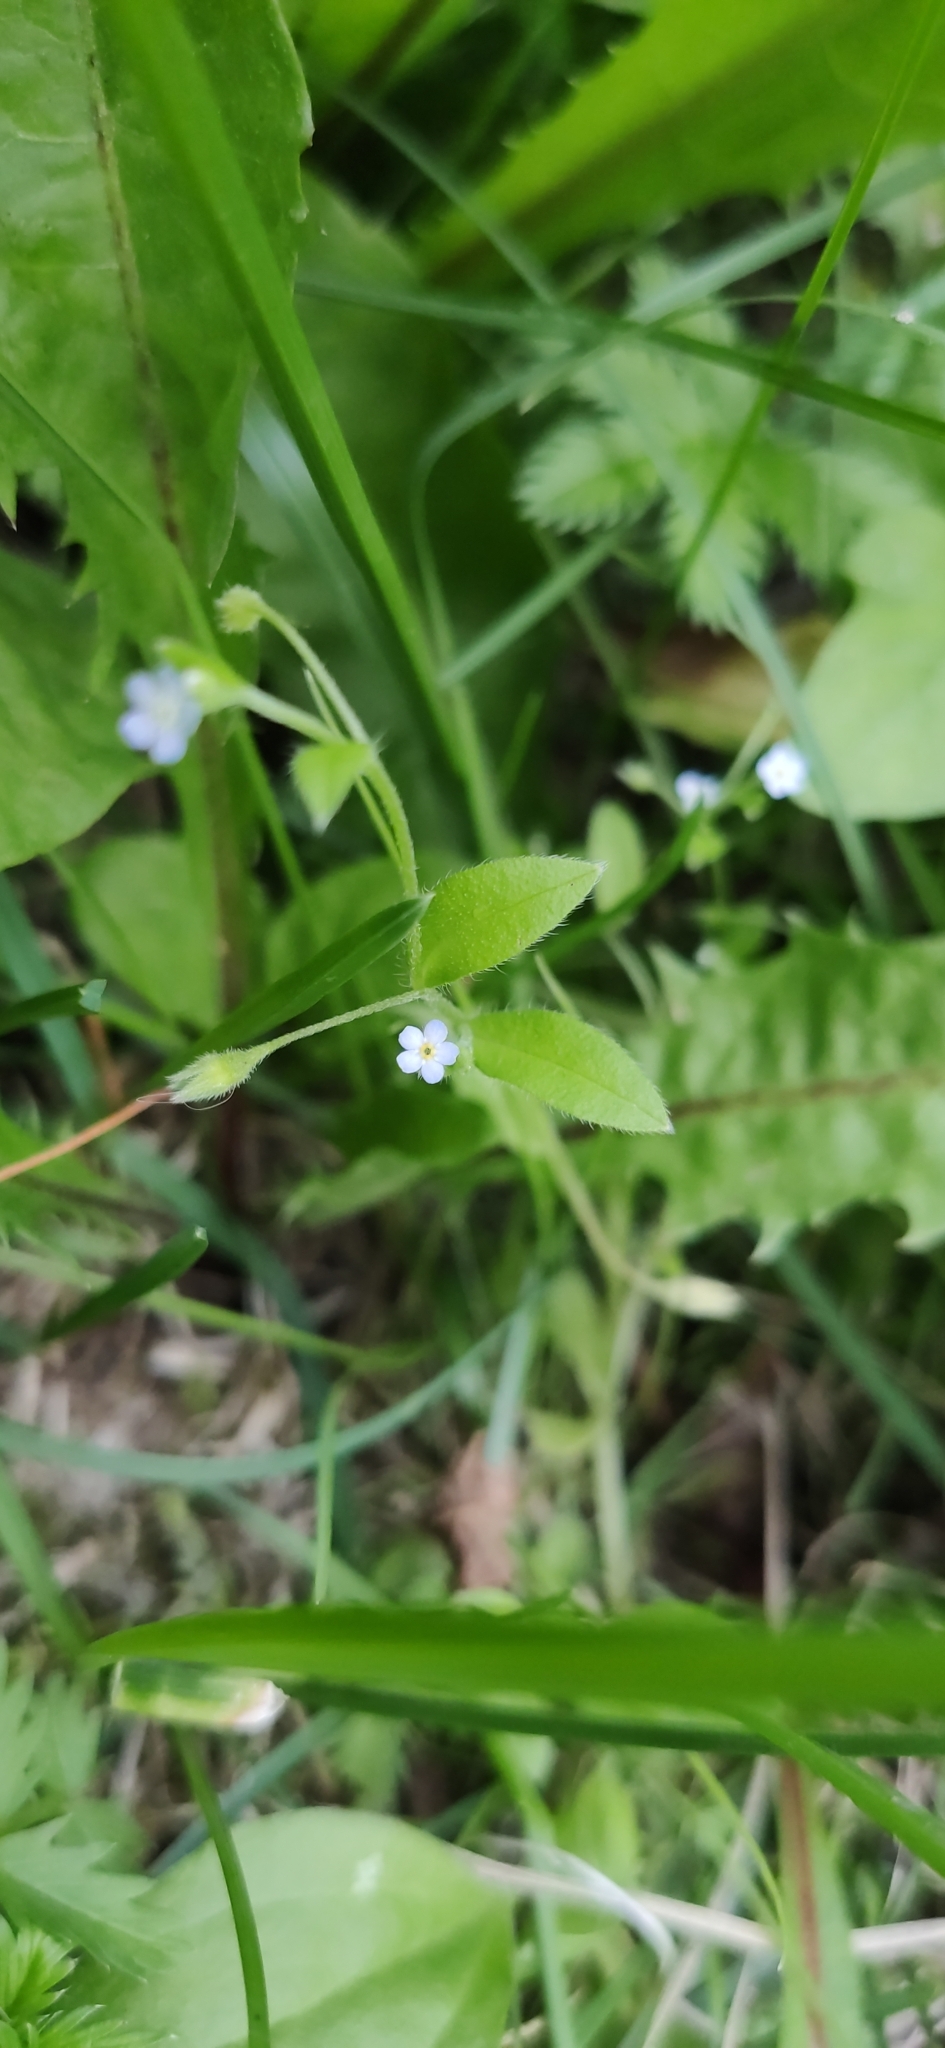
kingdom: Plantae
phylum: Tracheophyta
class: Magnoliopsida
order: Boraginales
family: Boraginaceae
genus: Myosotis
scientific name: Myosotis sparsiflora
